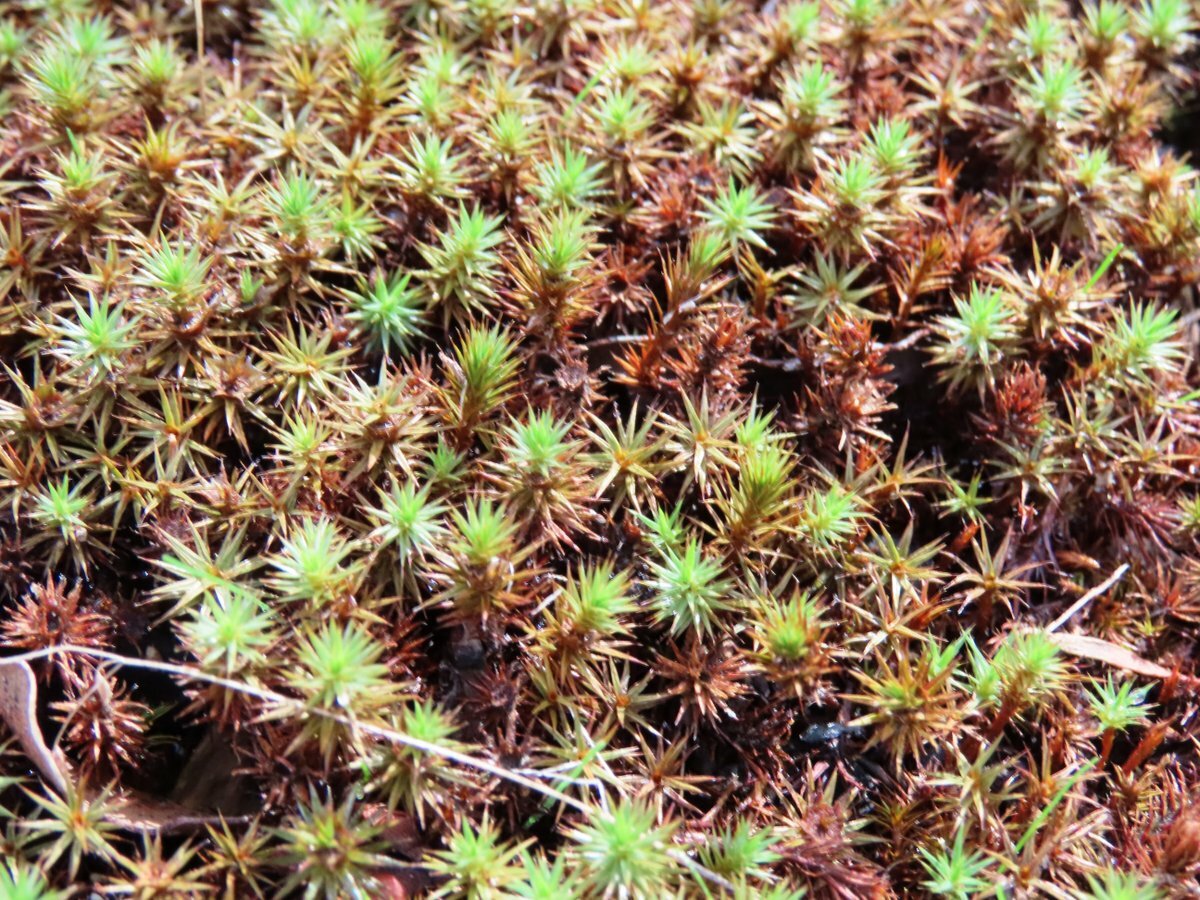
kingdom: Plantae
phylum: Bryophyta
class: Polytrichopsida
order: Polytrichales
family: Polytrichaceae
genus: Polytrichum
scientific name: Polytrichum juniperinum
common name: Juniper haircap moss
